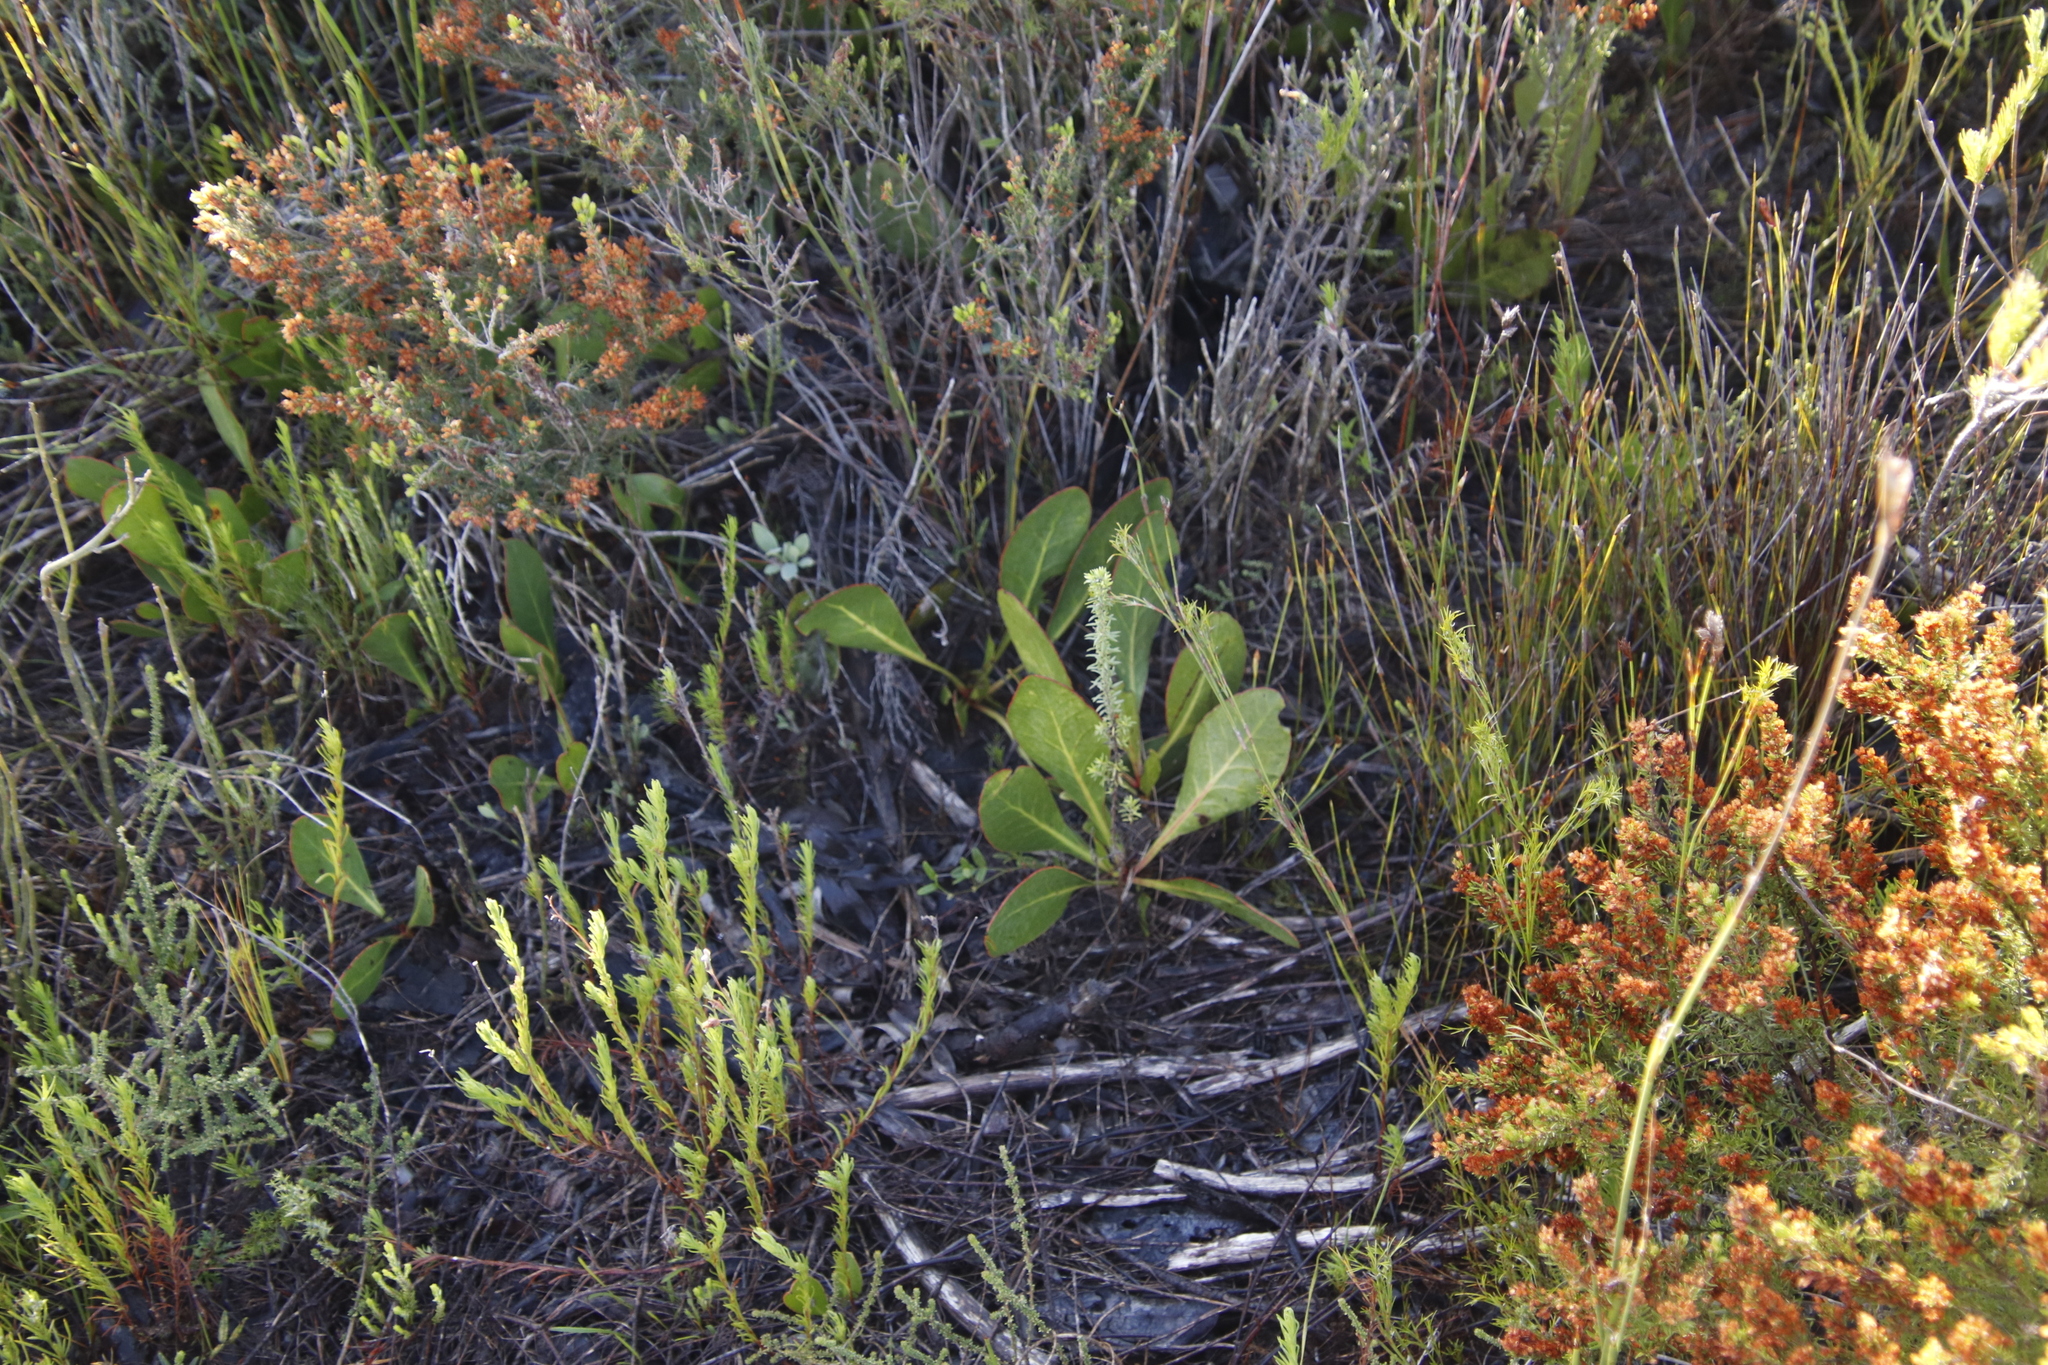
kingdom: Plantae
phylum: Tracheophyta
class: Magnoliopsida
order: Proteales
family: Proteaceae
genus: Protea
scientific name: Protea acaulos
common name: Common ground sugarbush
